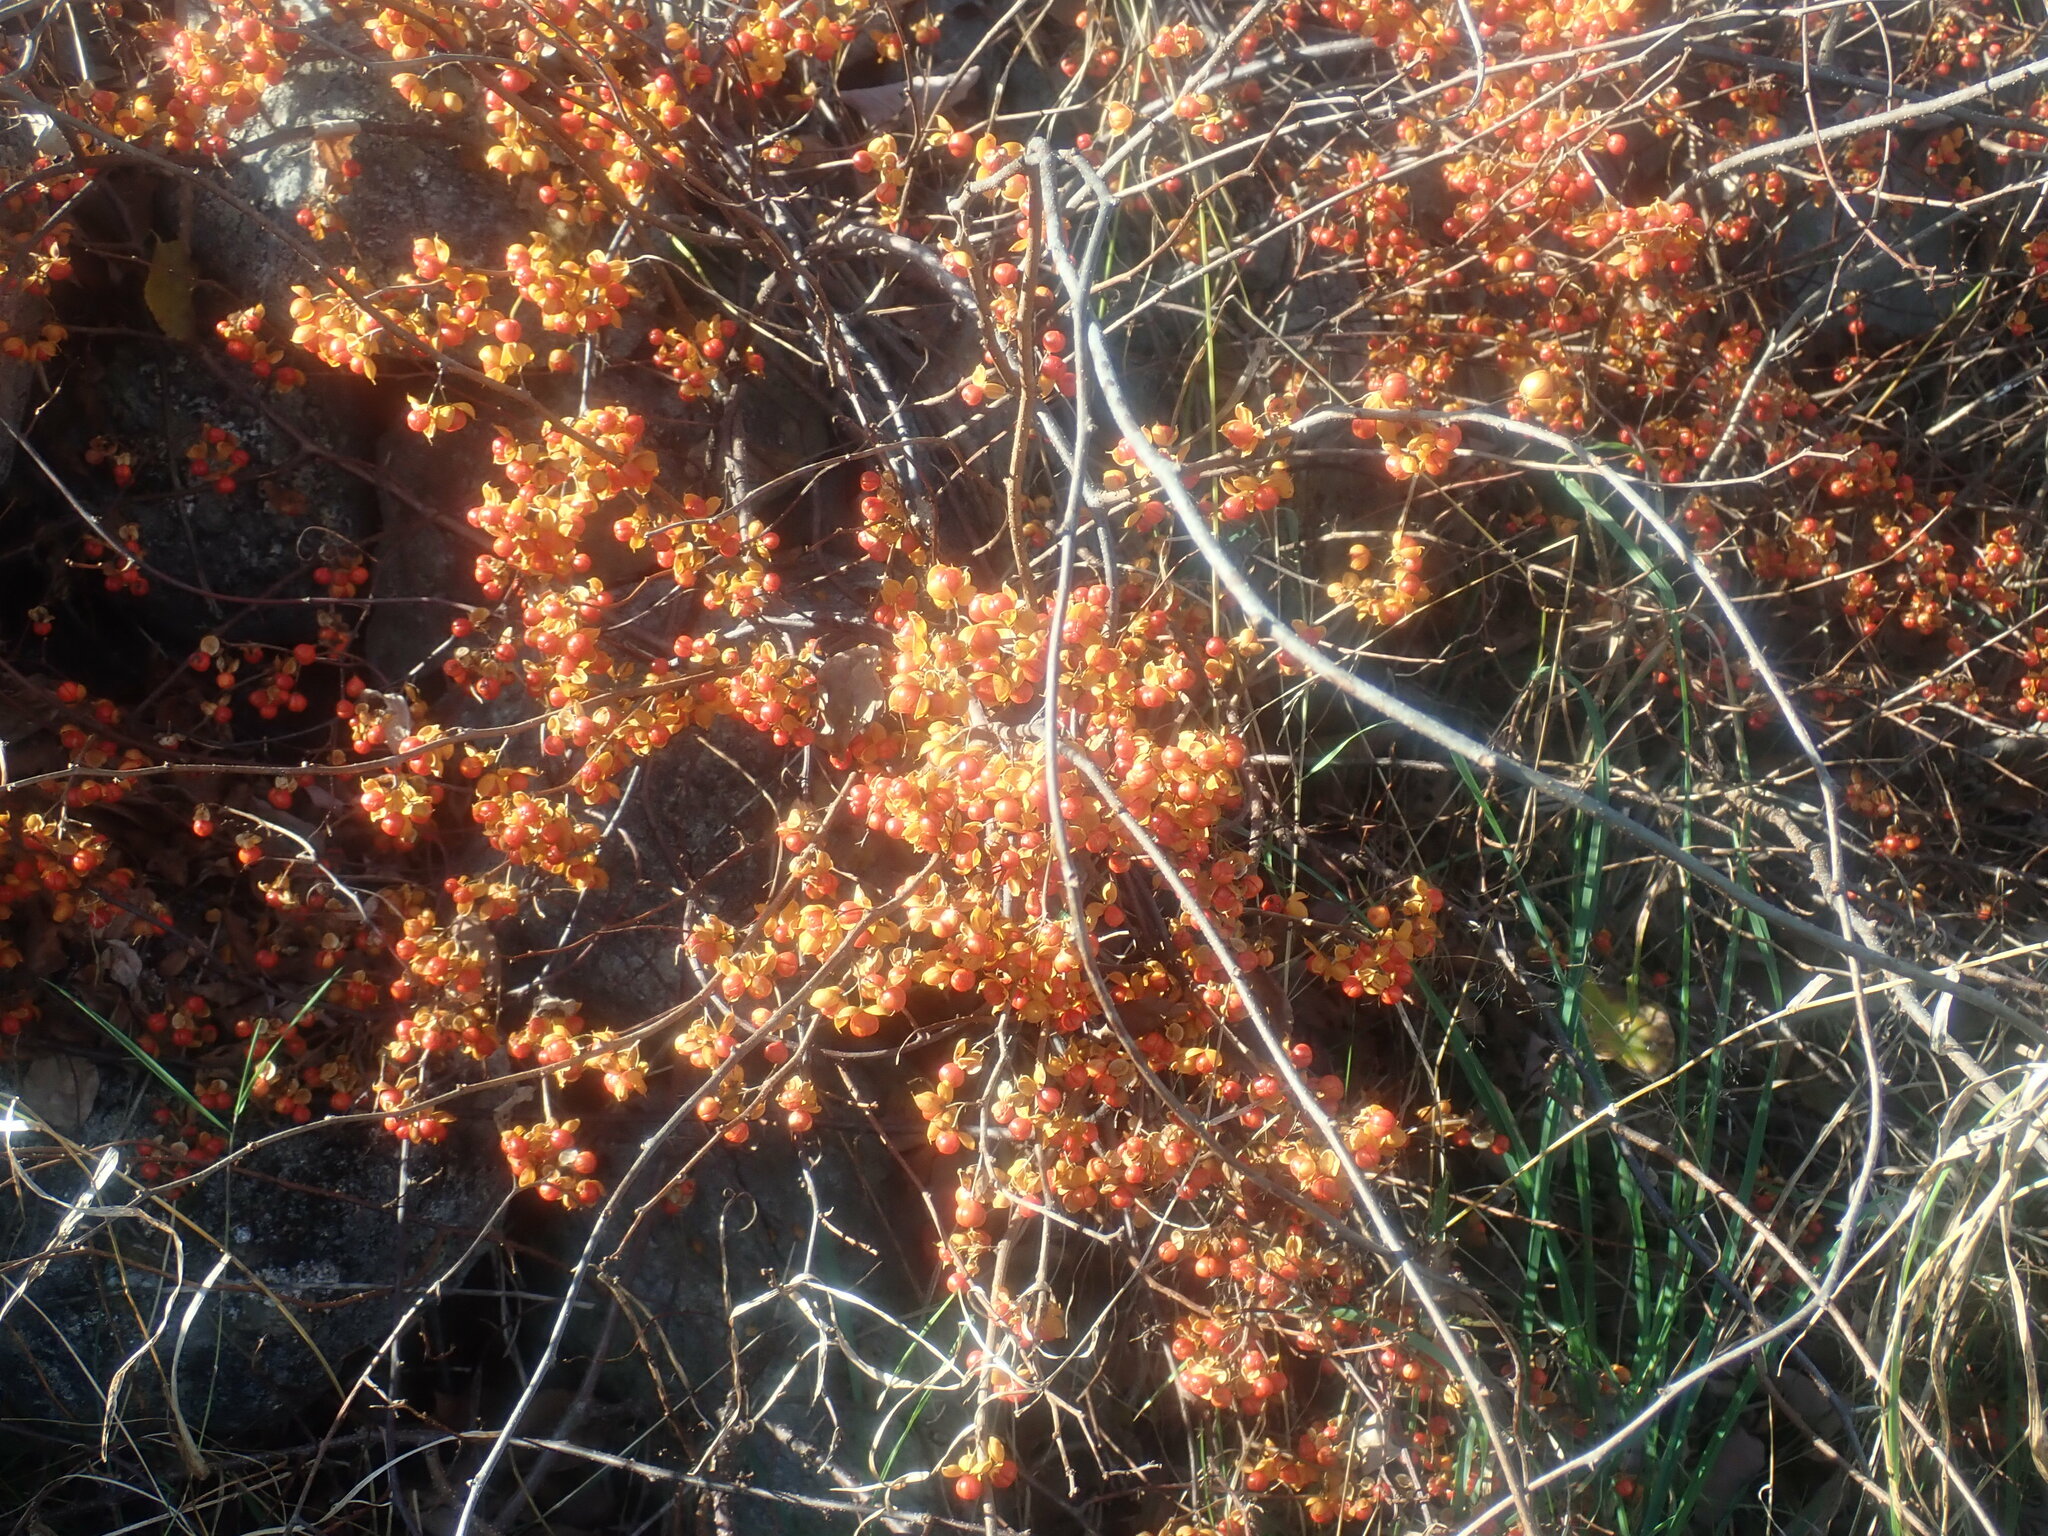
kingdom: Plantae
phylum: Tracheophyta
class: Magnoliopsida
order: Celastrales
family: Celastraceae
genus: Celastrus
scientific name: Celastrus orbiculatus
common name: Oriental bittersweet
